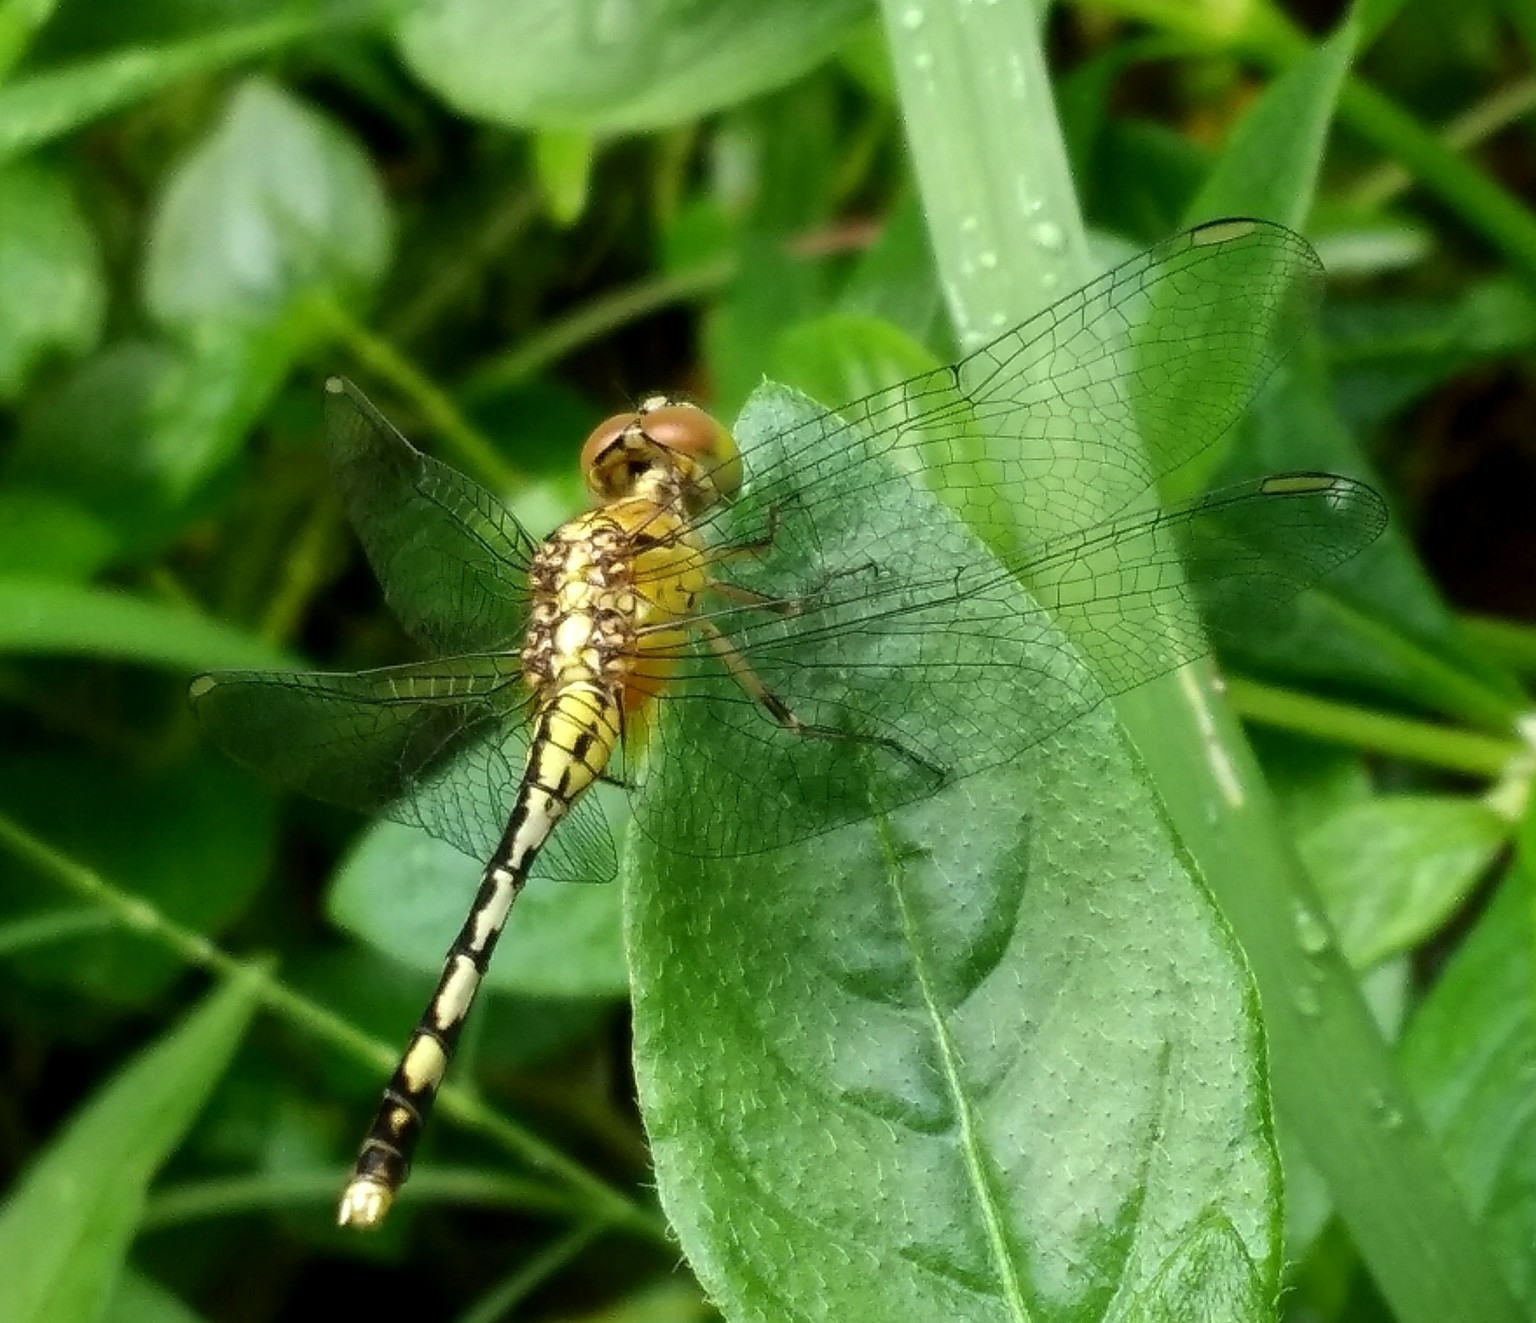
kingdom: Animalia
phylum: Arthropoda
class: Insecta
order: Odonata
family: Libellulidae
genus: Diplacodes
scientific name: Diplacodes trivialis
